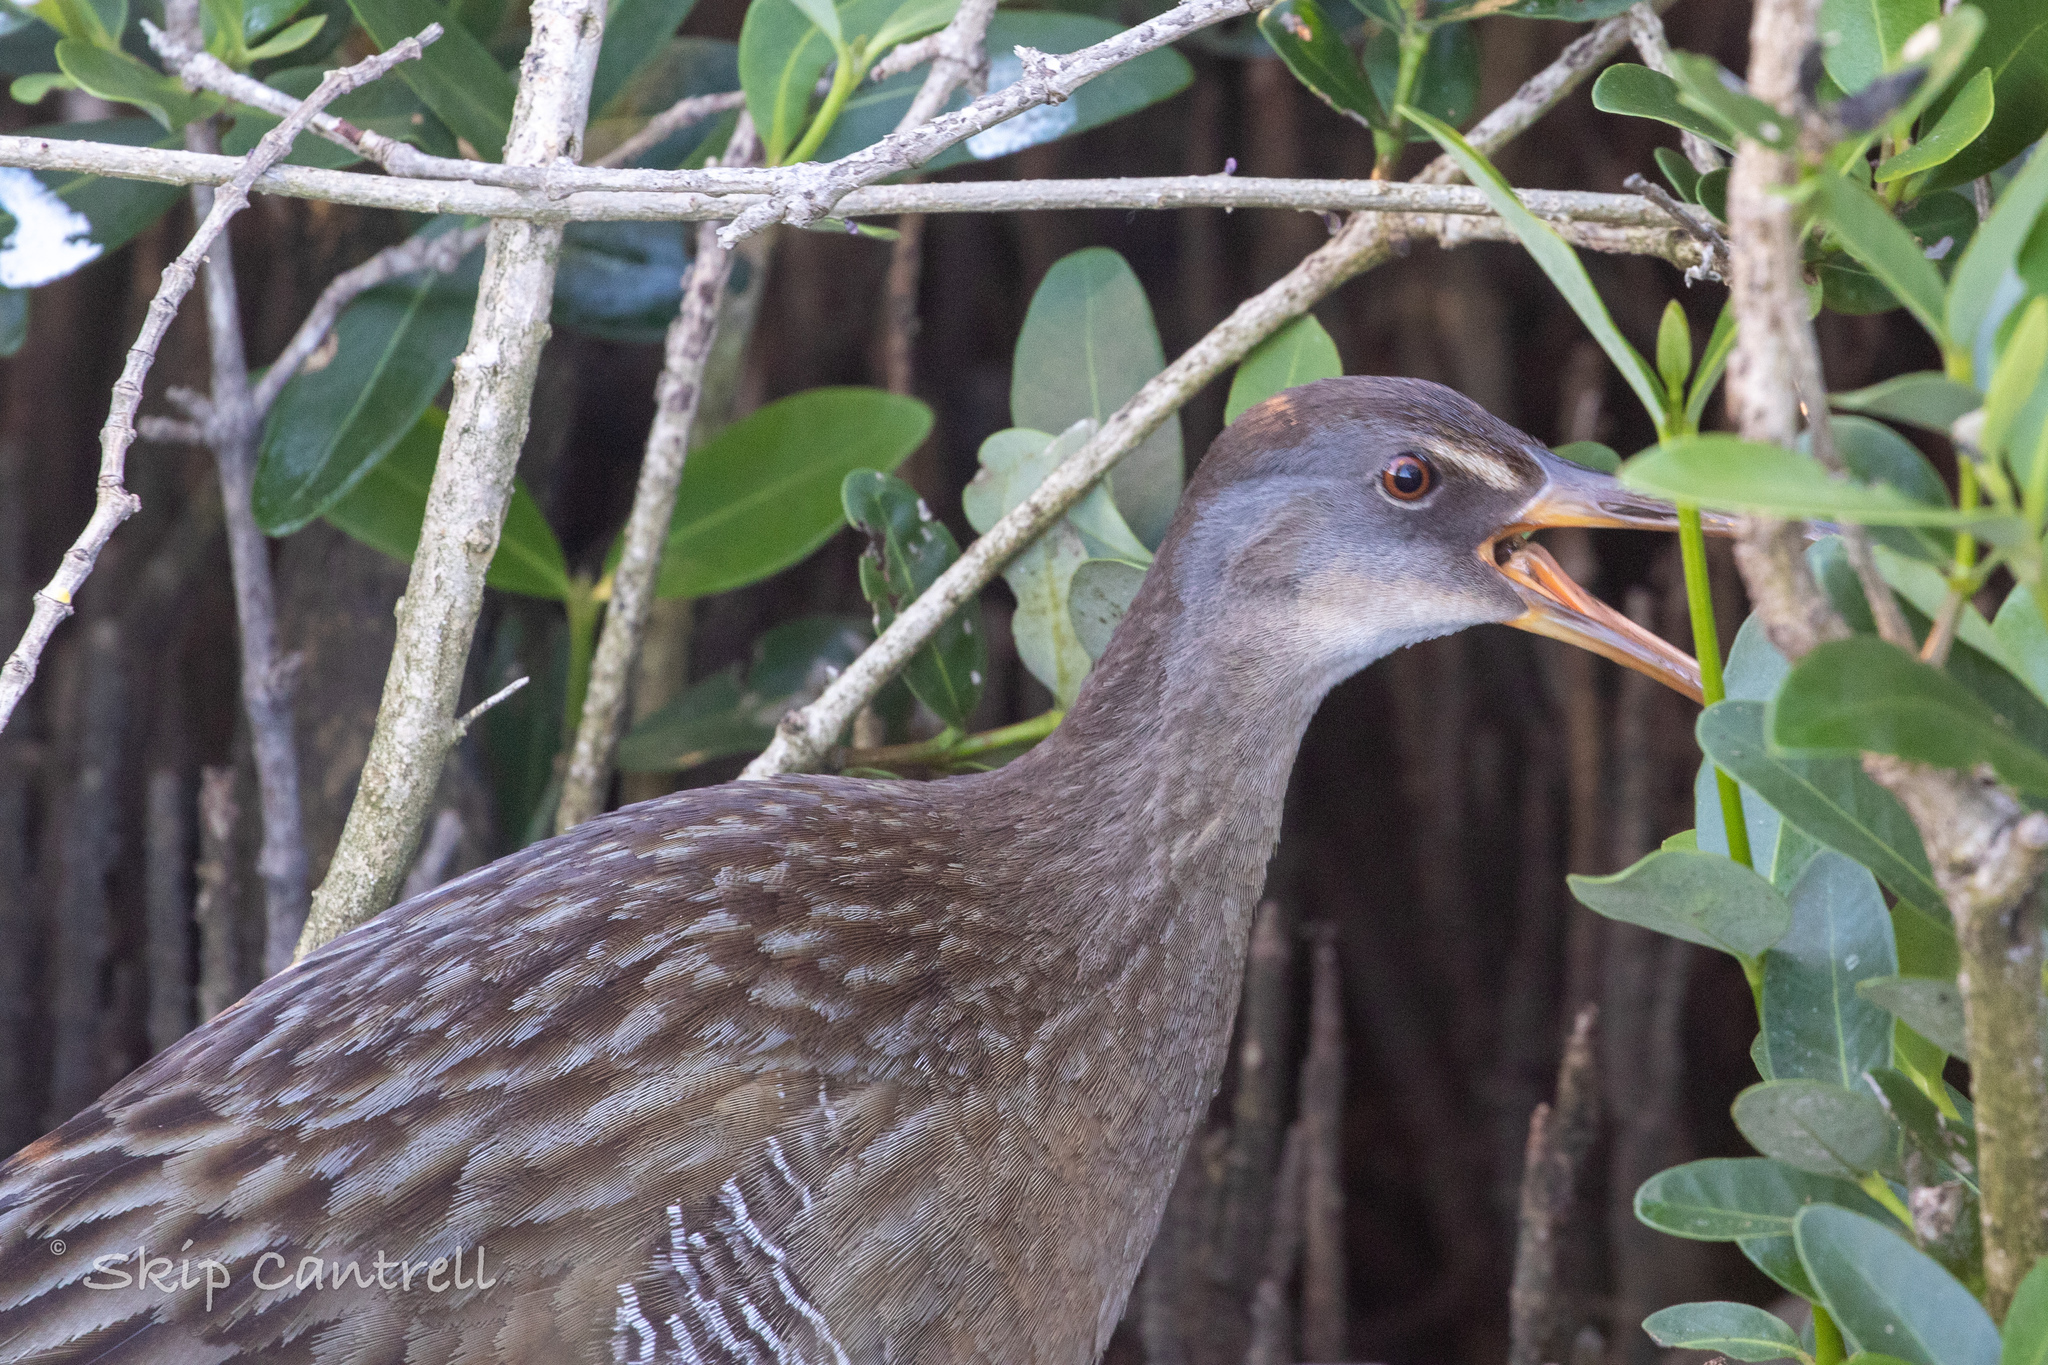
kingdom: Animalia
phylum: Chordata
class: Aves
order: Gruiformes
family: Rallidae
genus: Rallus
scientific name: Rallus crepitans
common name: Clapper rail
